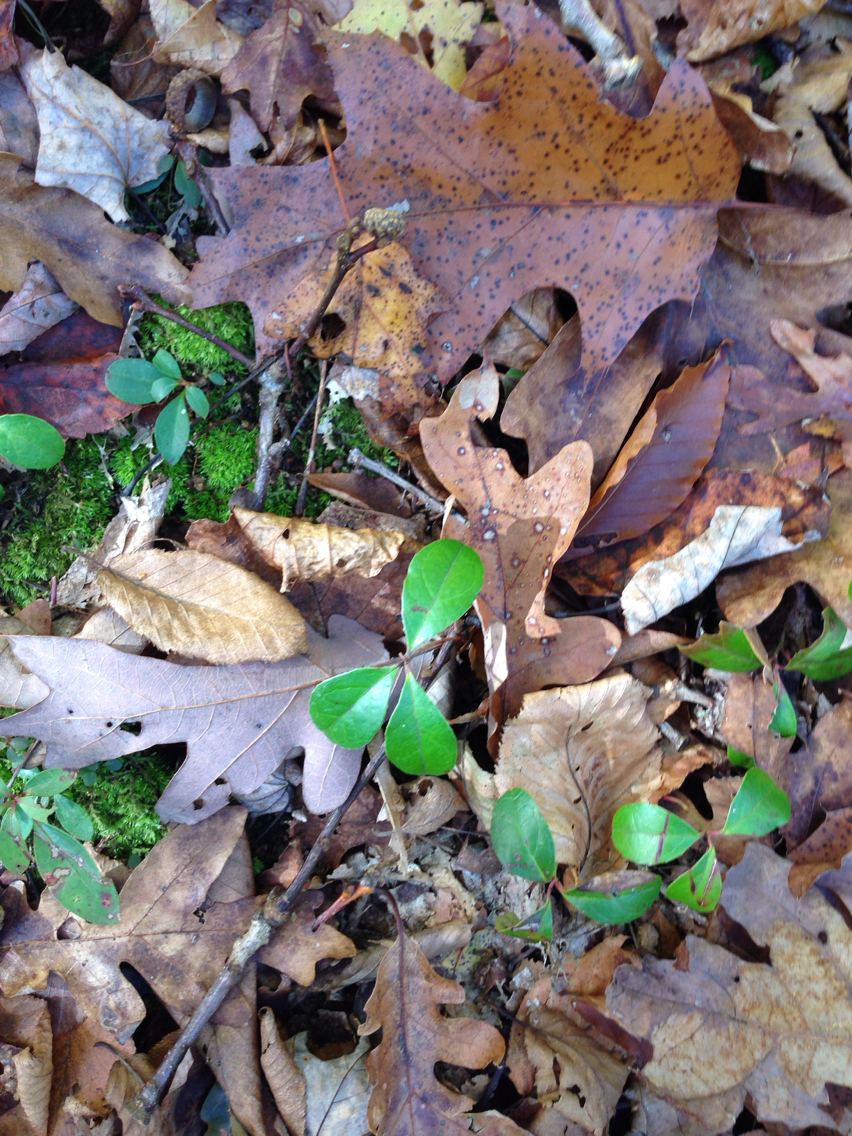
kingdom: Plantae
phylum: Tracheophyta
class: Magnoliopsida
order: Ericales
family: Ericaceae
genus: Gaultheria
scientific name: Gaultheria procumbens
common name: Checkerberry
